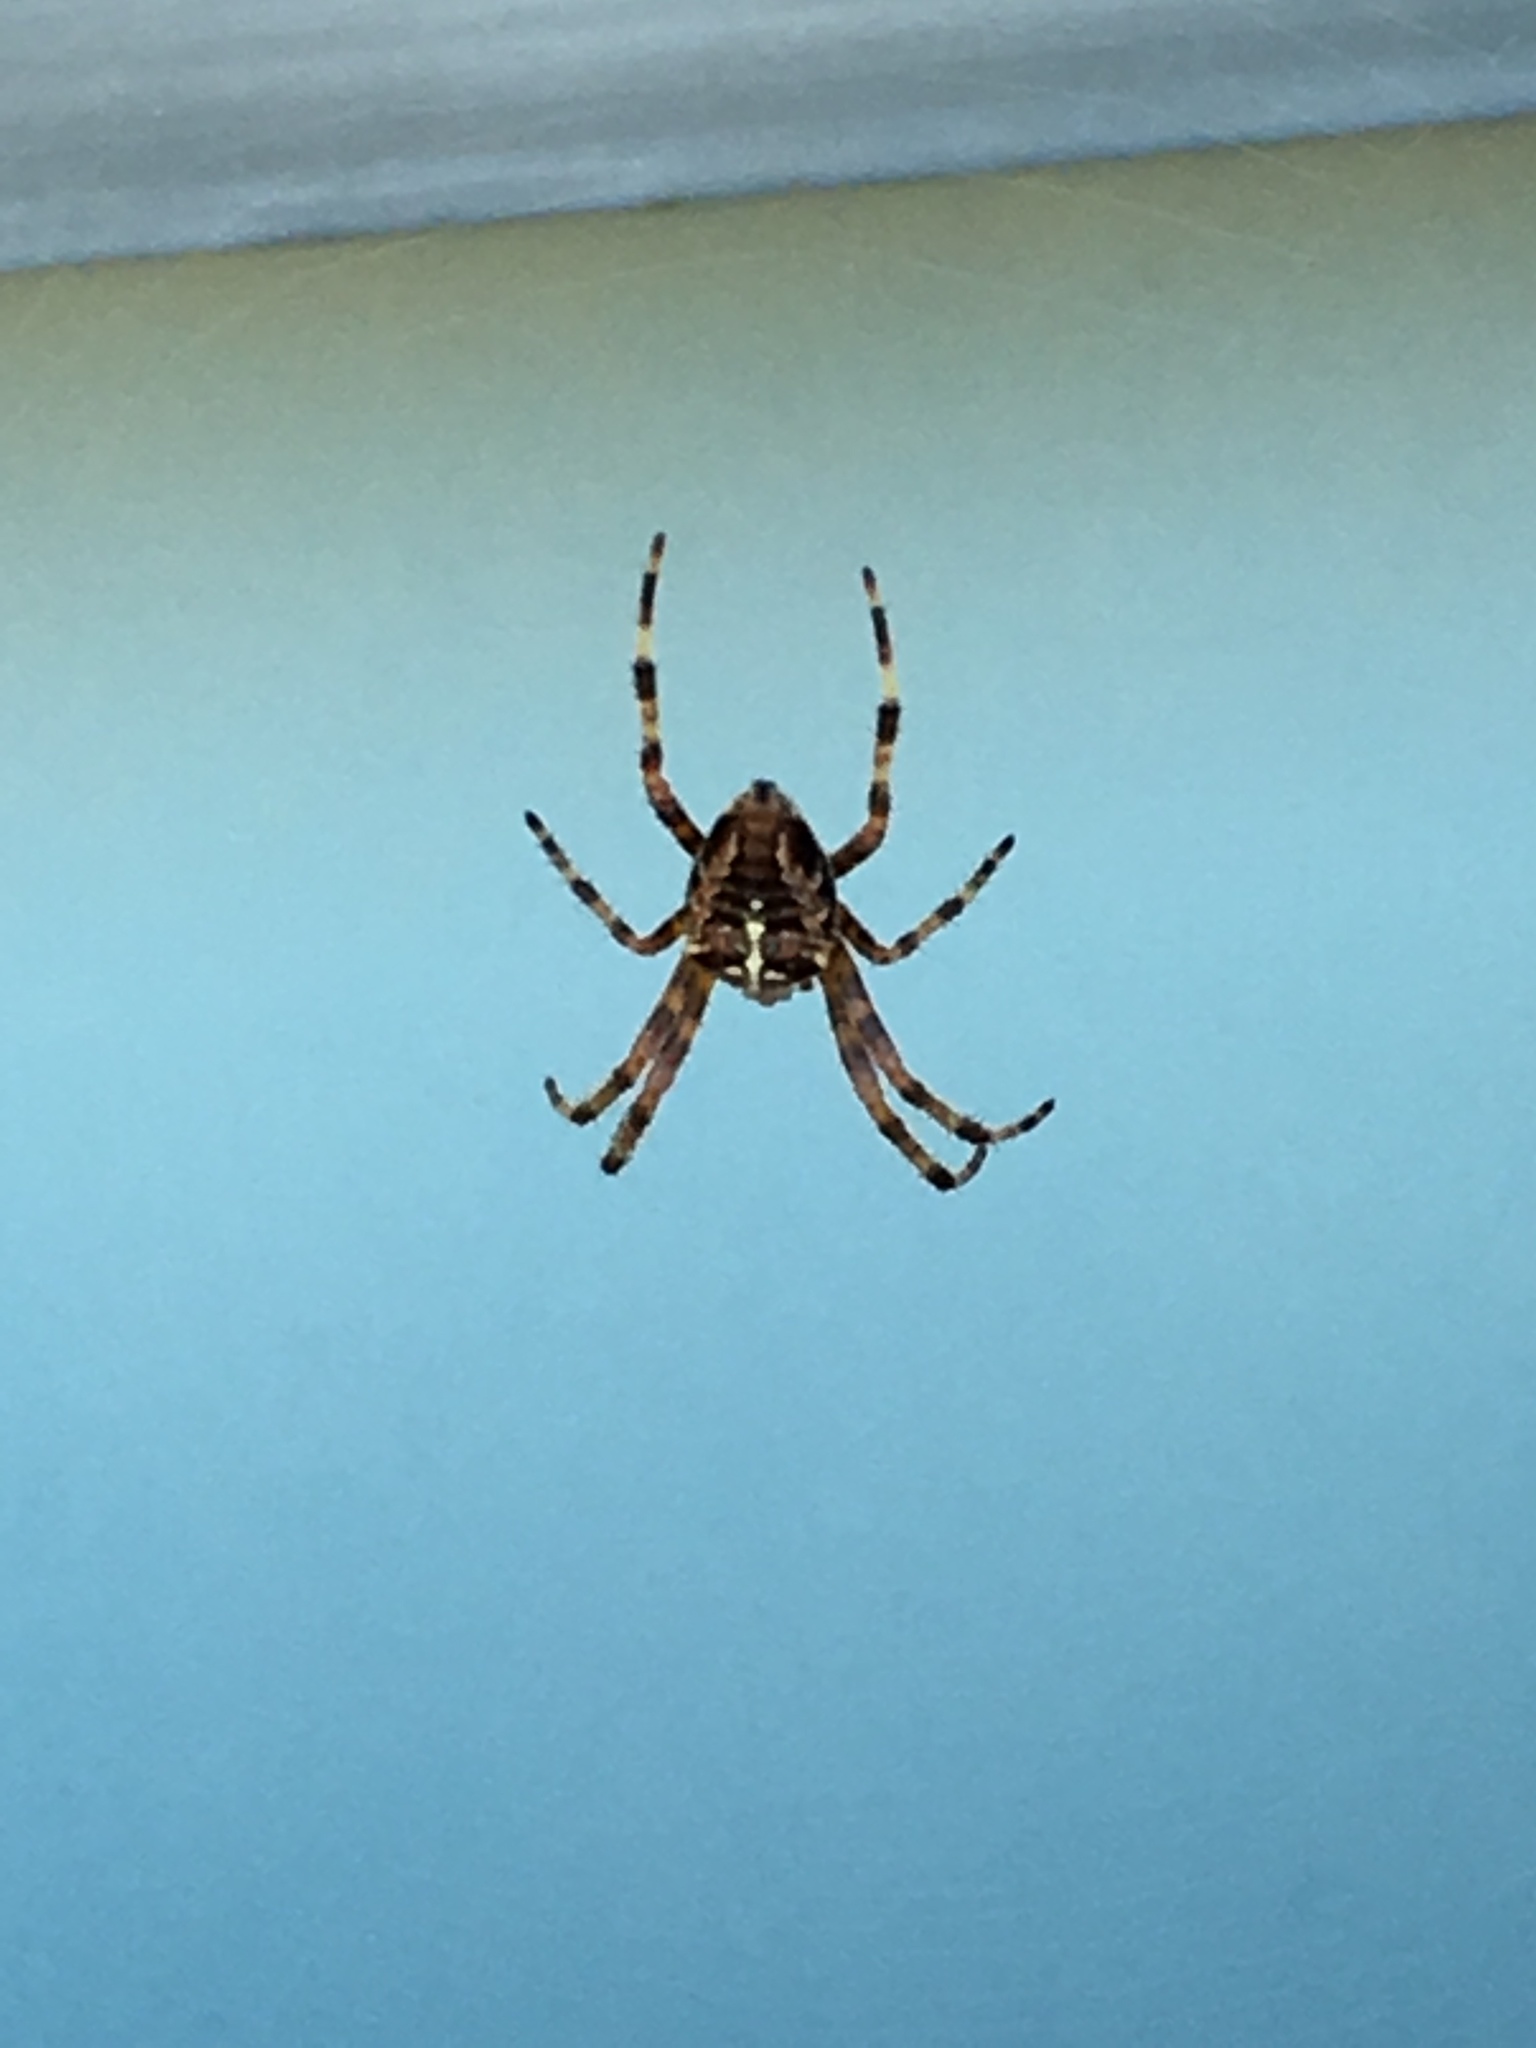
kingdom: Animalia
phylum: Arthropoda
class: Arachnida
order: Araneae
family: Araneidae
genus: Araneus
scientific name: Araneus diadematus
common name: Cross orbweaver
